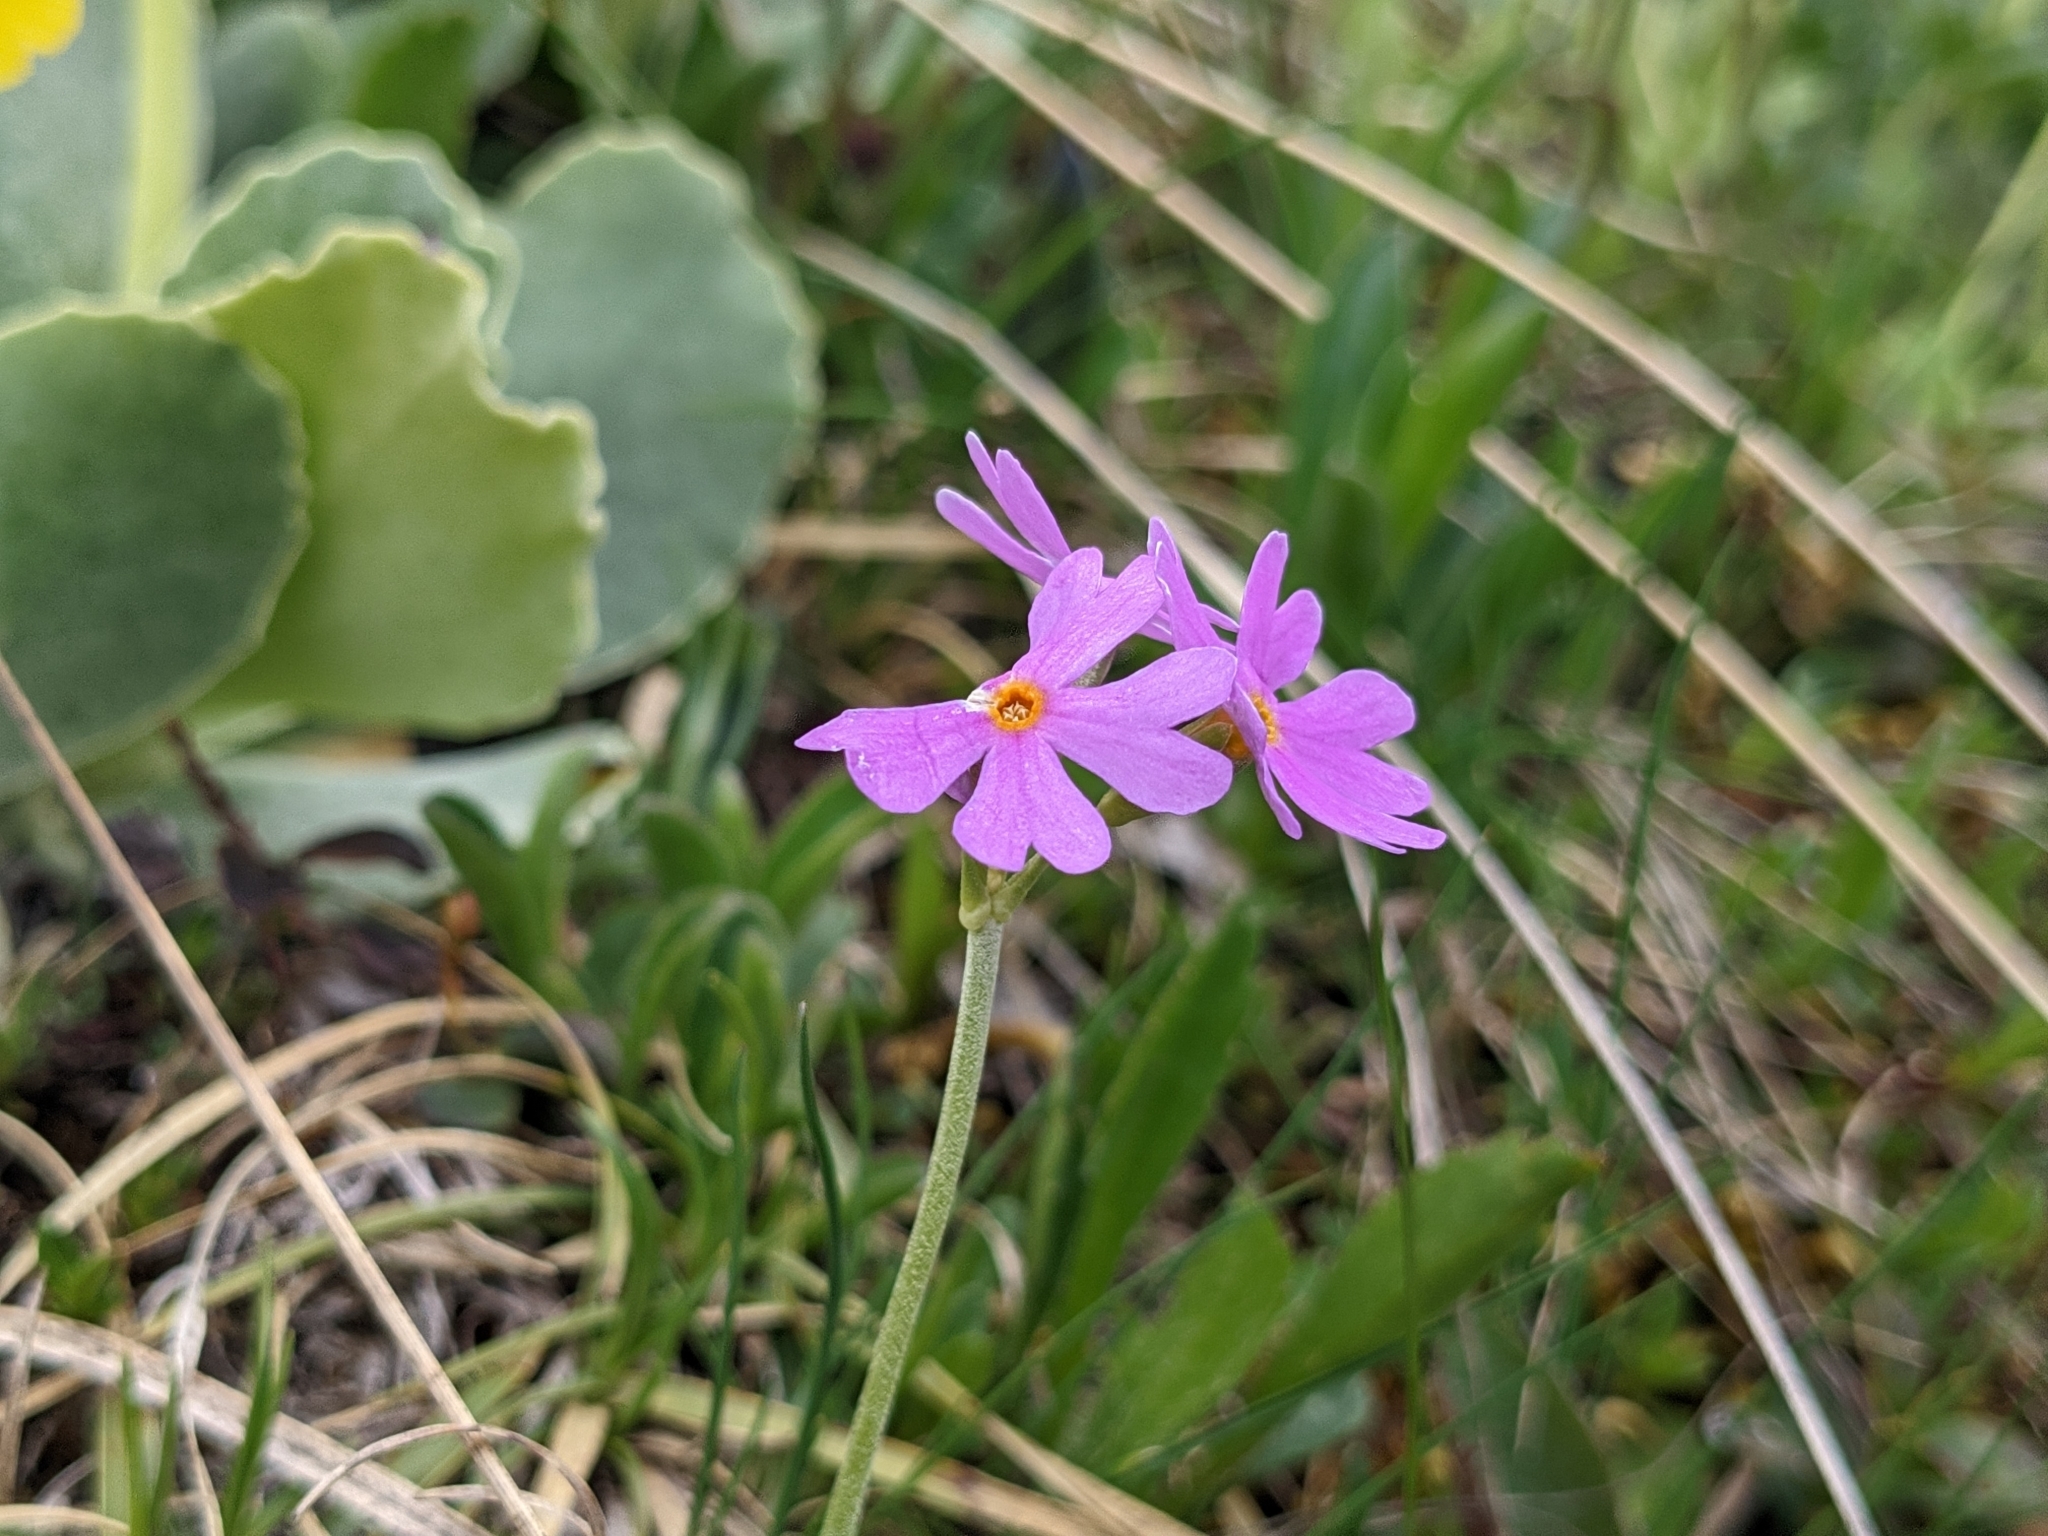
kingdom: Plantae
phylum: Tracheophyta
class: Magnoliopsida
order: Ericales
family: Primulaceae
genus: Primula
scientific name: Primula farinosa
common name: Bird's-eye primrose
